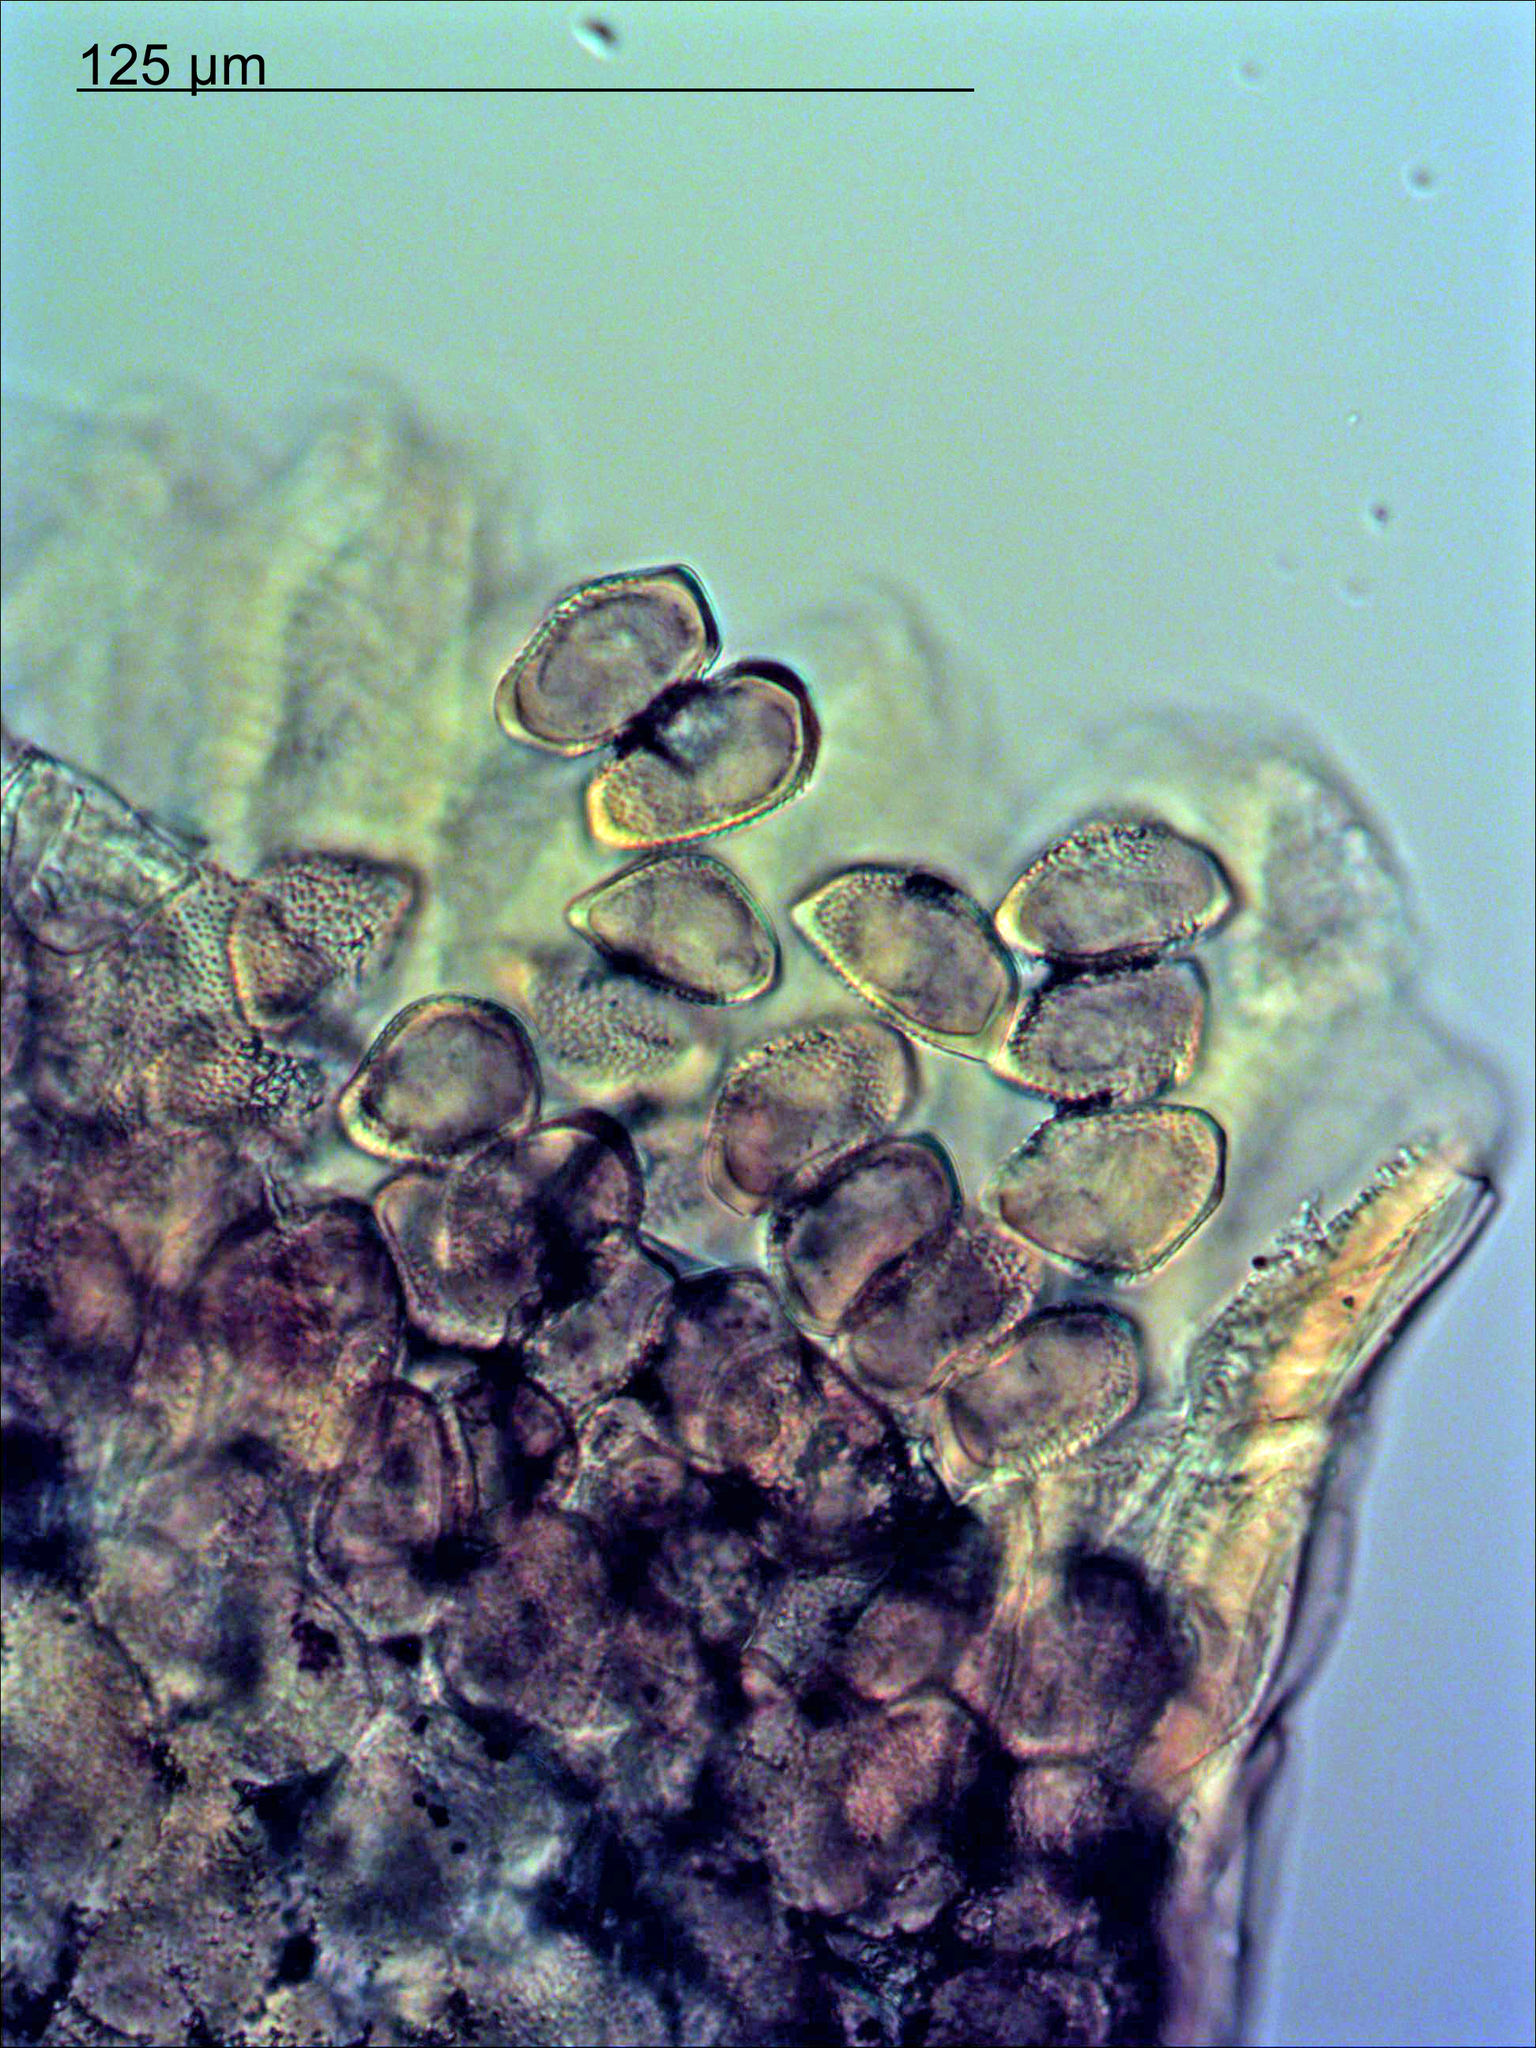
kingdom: Fungi
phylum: Basidiomycota
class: Pucciniomycetes
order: Pucciniales
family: Pucciniaceae
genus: Puccinia
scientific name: Puccinia akiraho
